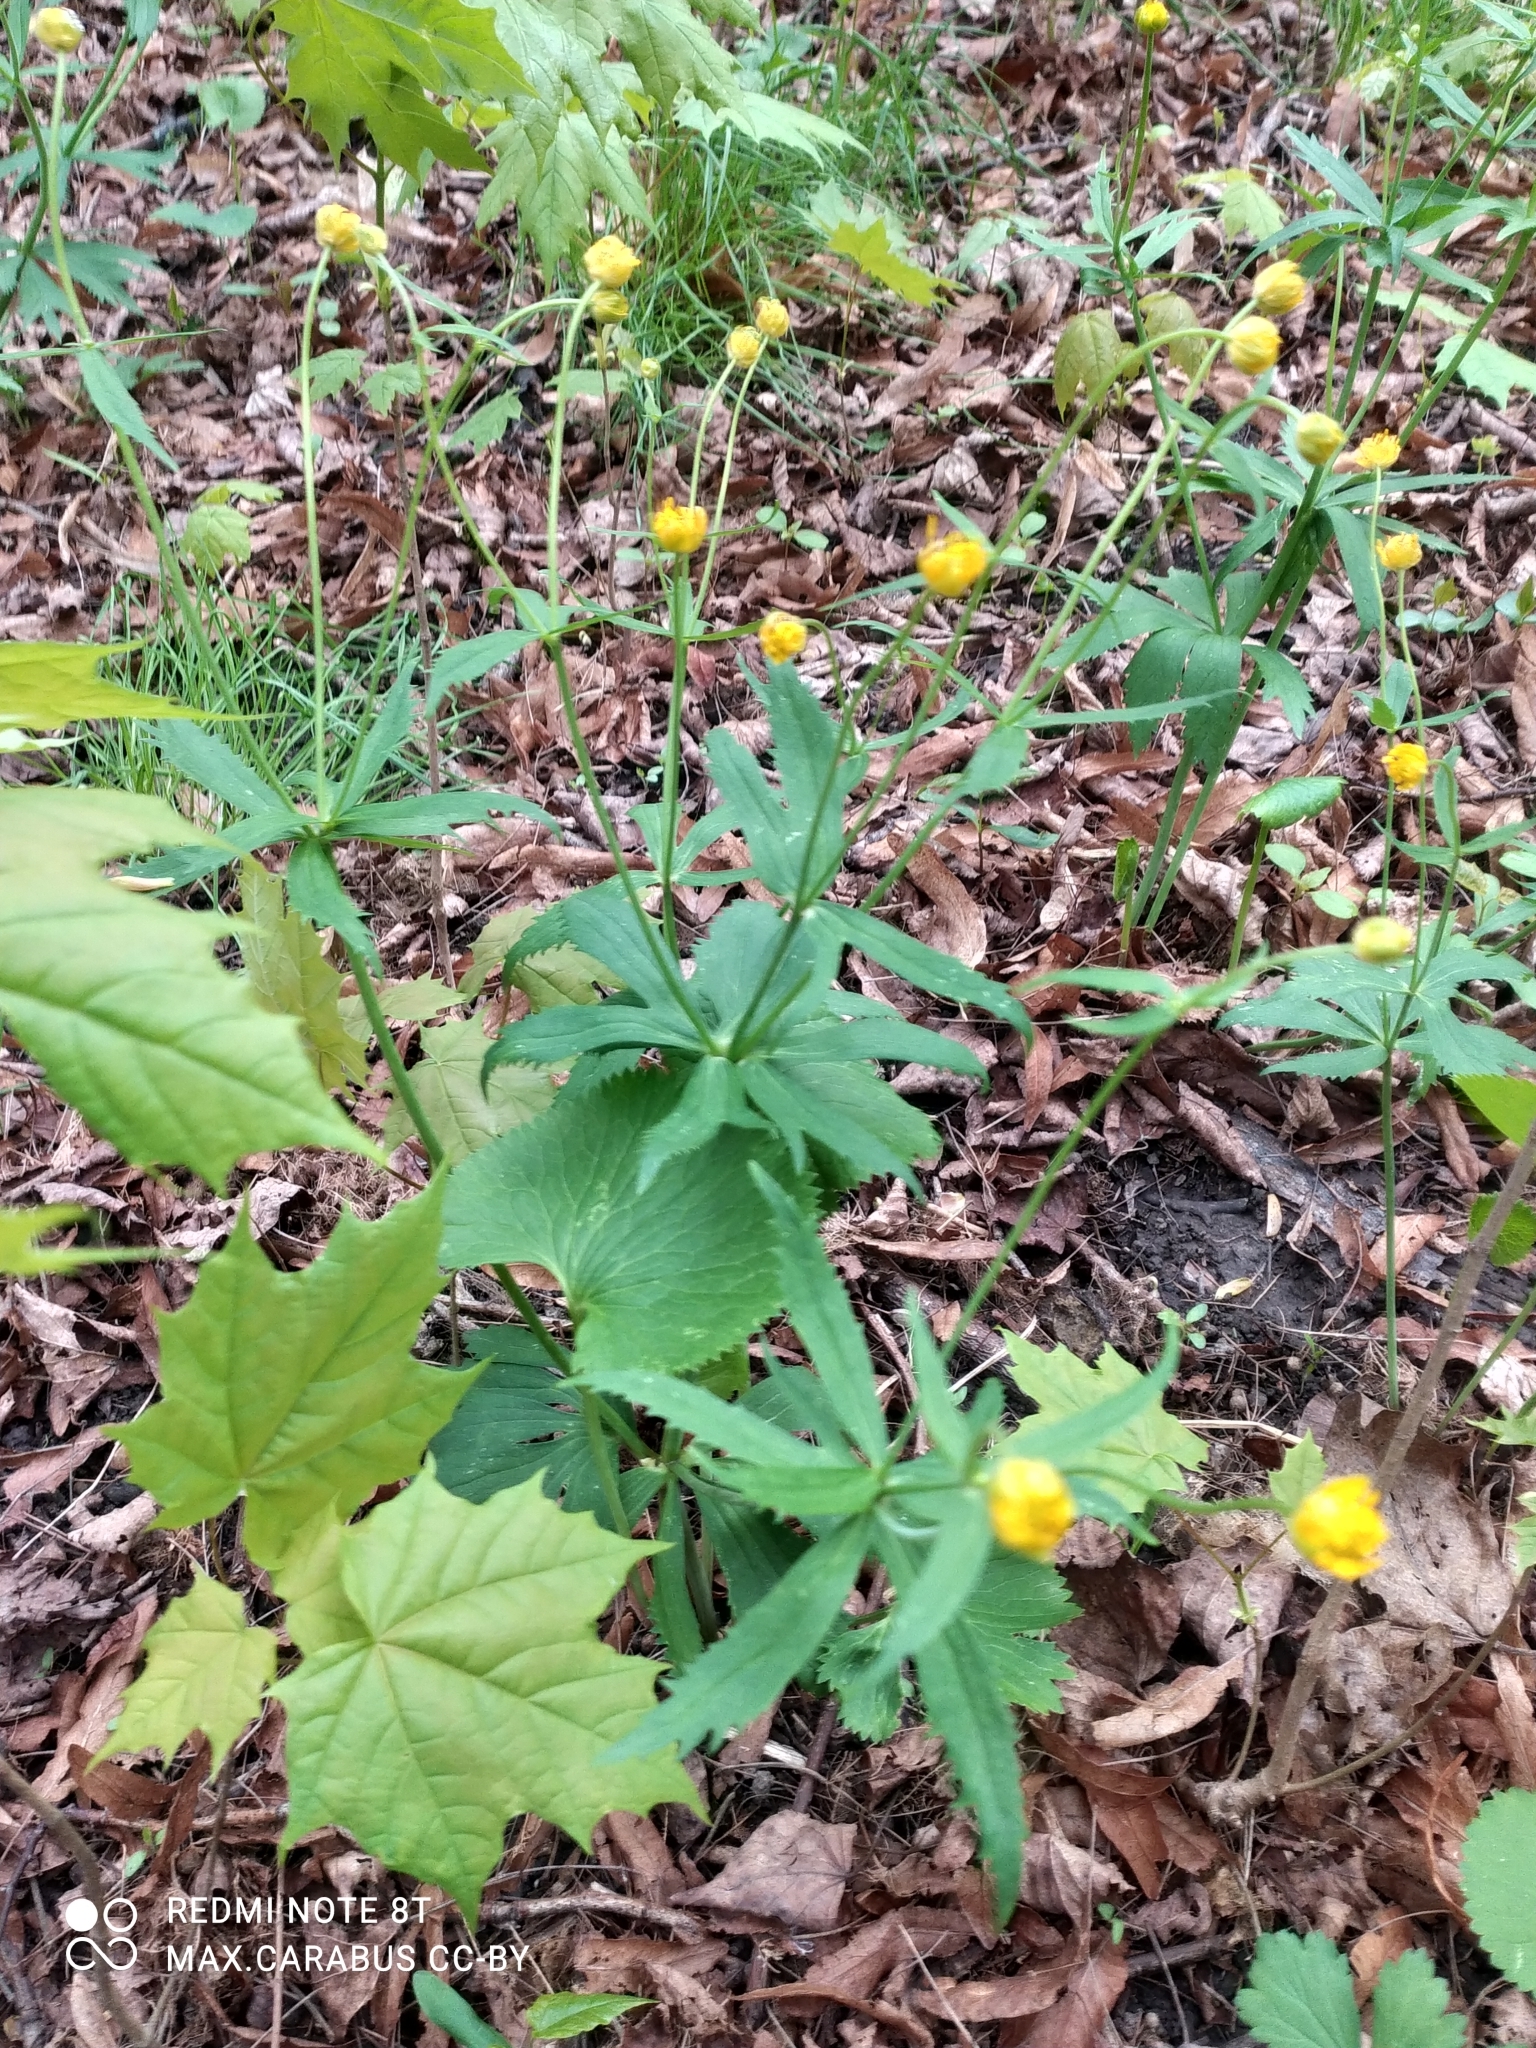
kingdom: Plantae
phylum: Tracheophyta
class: Magnoliopsida
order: Ranunculales
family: Ranunculaceae
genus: Ranunculus
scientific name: Ranunculus cassubicus
